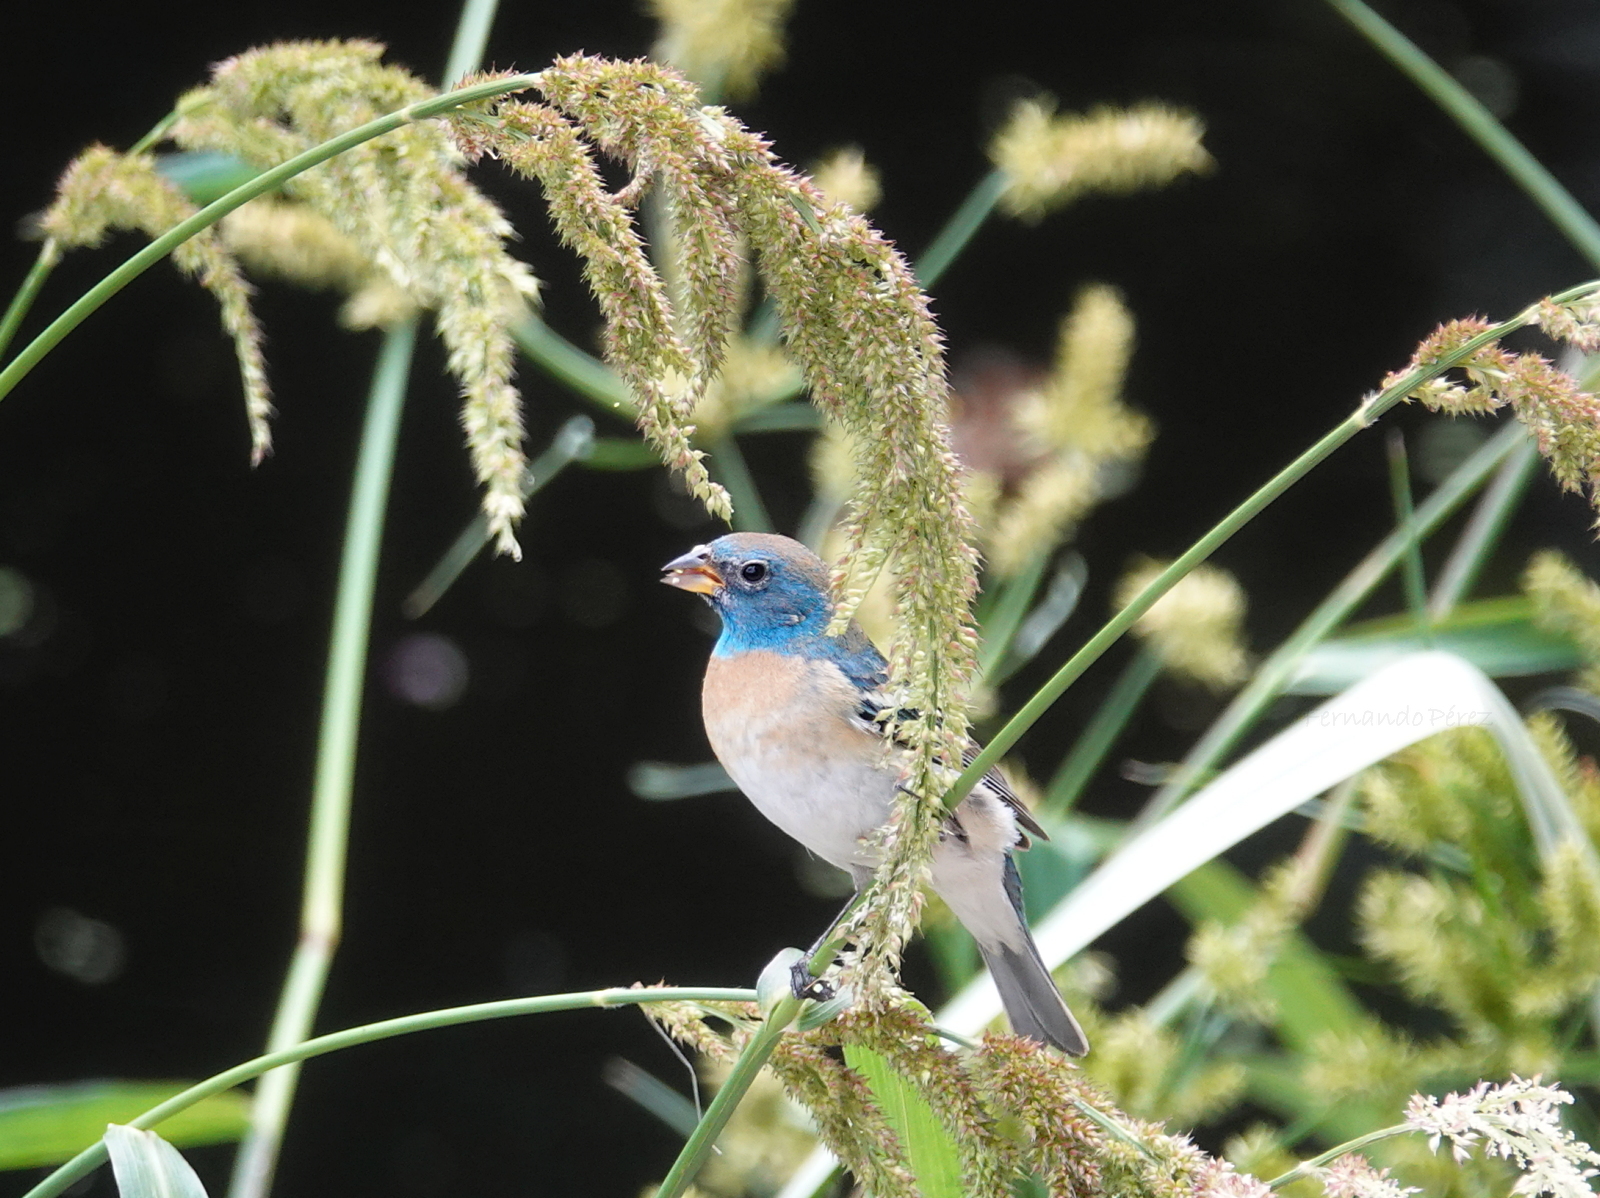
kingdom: Animalia
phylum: Chordata
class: Aves
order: Passeriformes
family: Cardinalidae
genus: Passerina
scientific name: Passerina amoena
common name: Lazuli bunting
